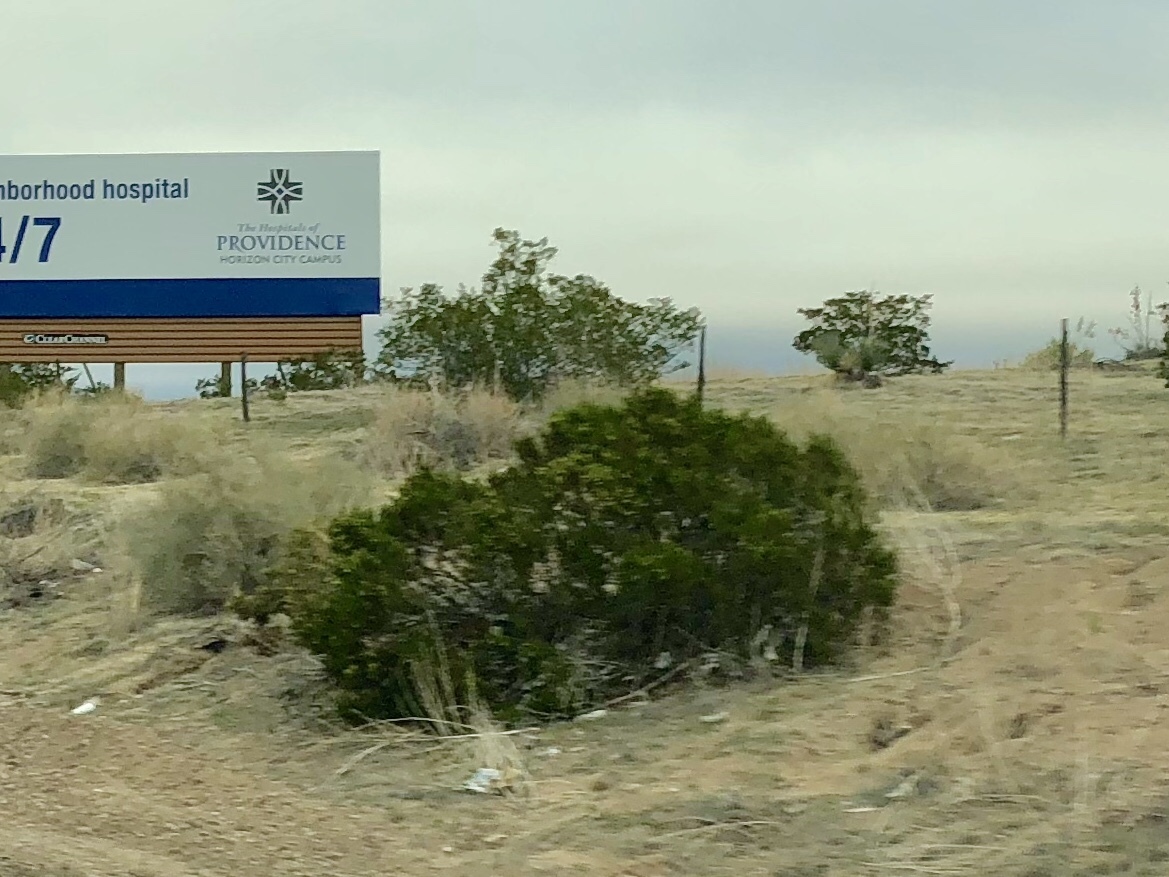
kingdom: Plantae
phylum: Tracheophyta
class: Magnoliopsida
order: Zygophyllales
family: Zygophyllaceae
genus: Larrea
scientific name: Larrea tridentata
